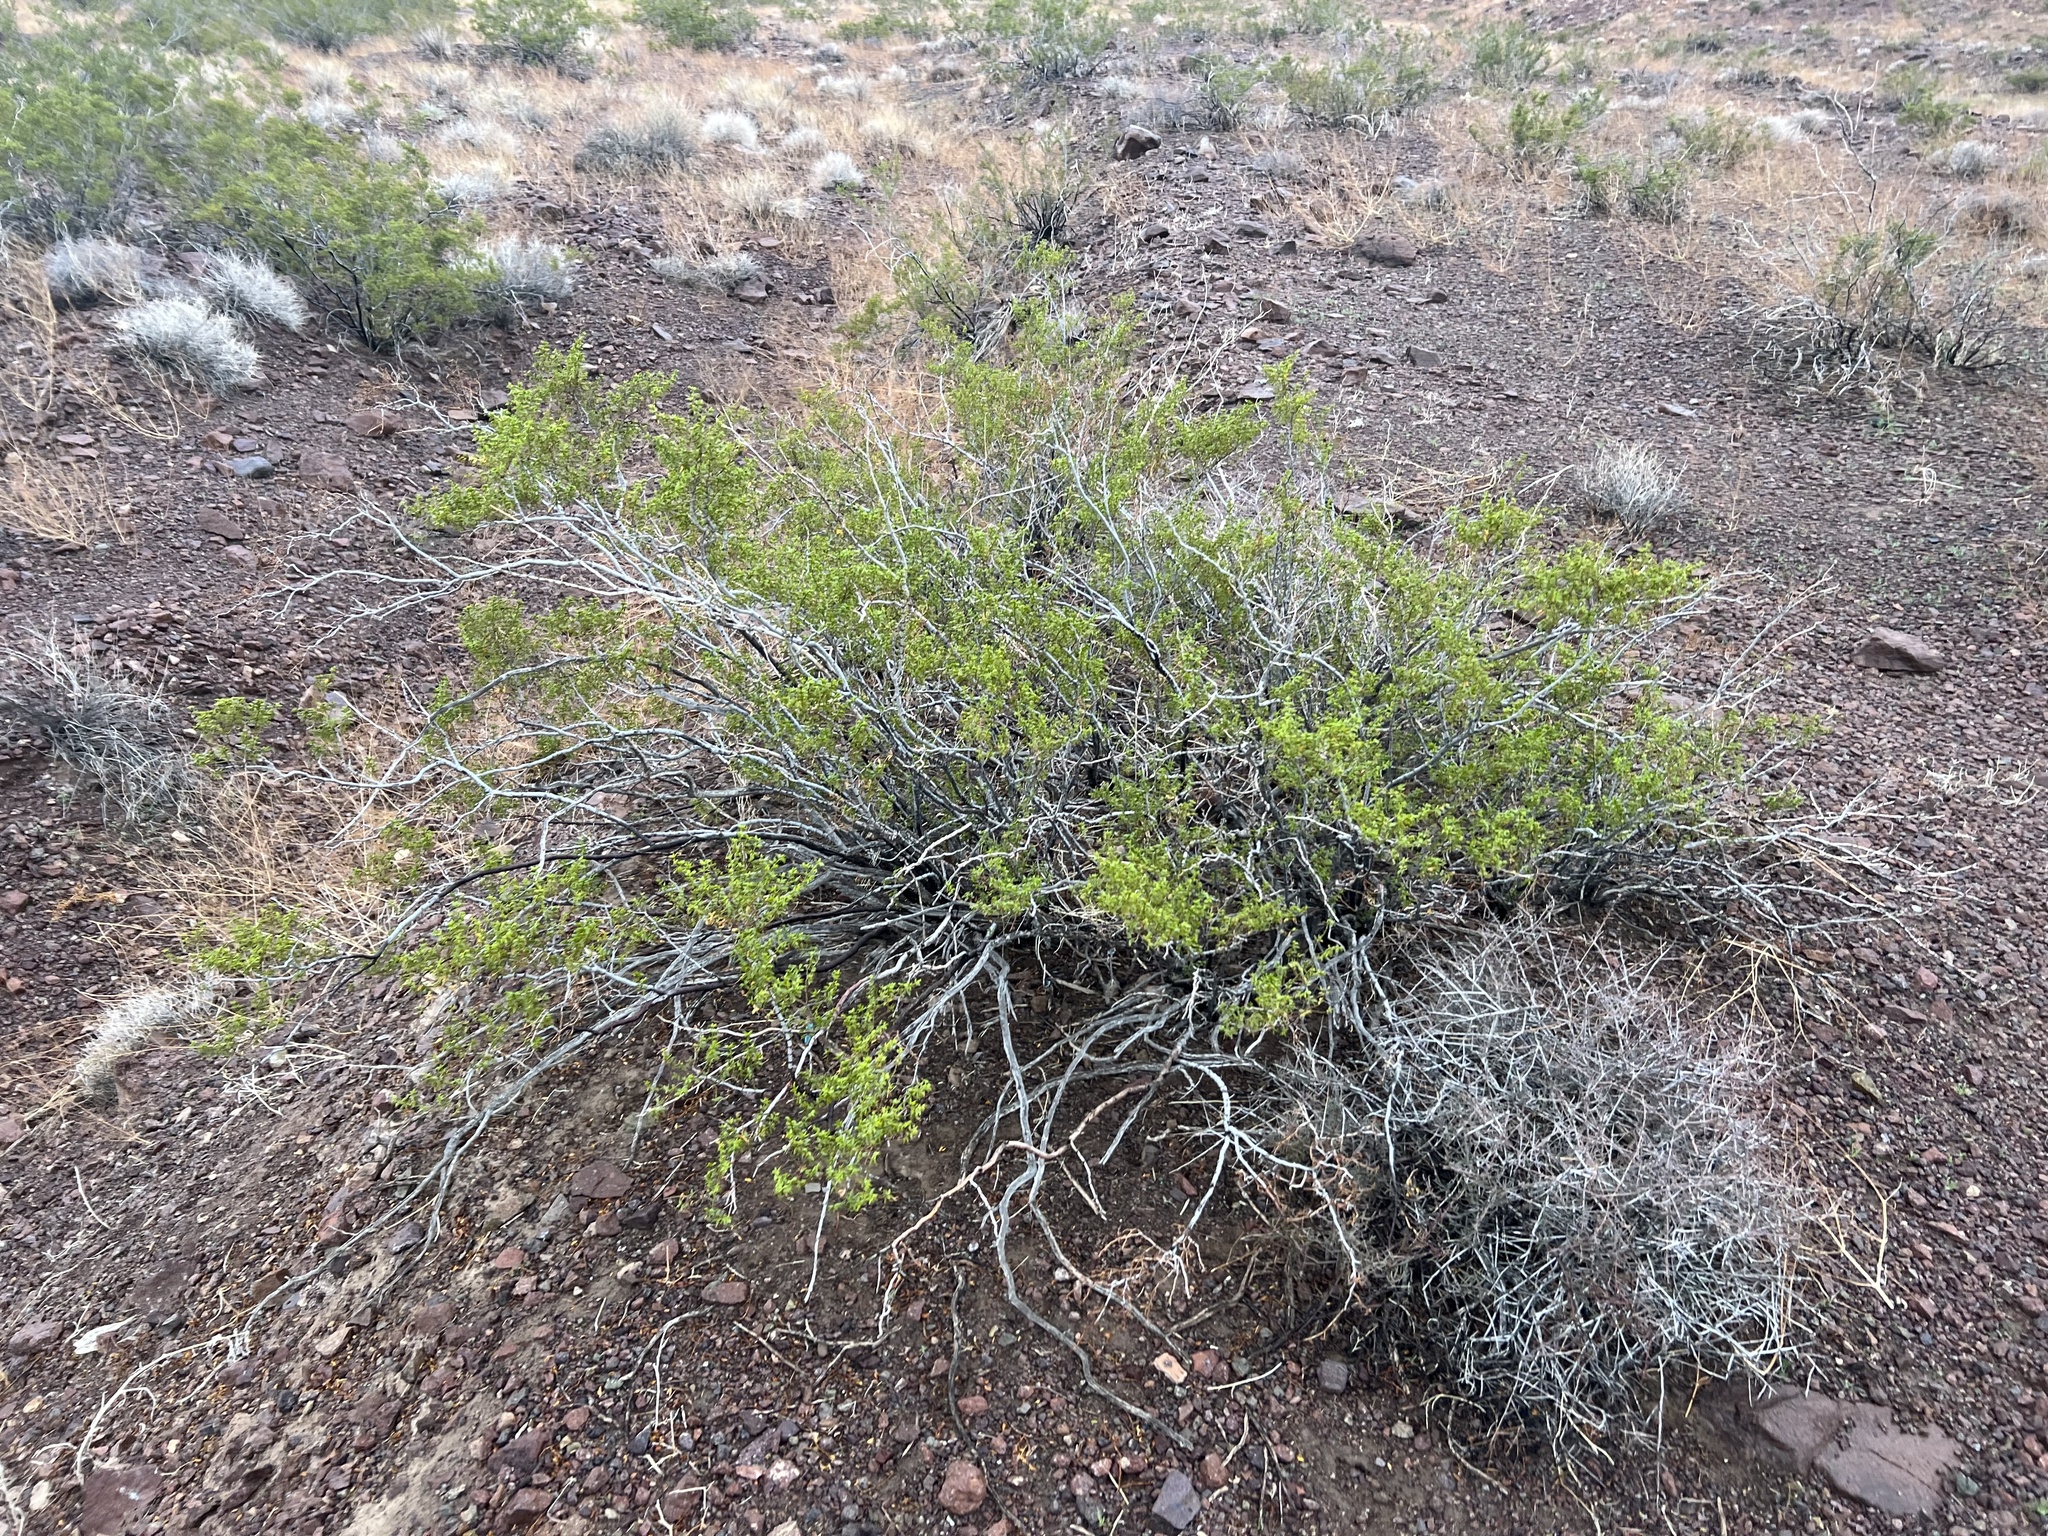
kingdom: Plantae
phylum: Tracheophyta
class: Magnoliopsida
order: Zygophyllales
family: Zygophyllaceae
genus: Larrea
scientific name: Larrea tridentata
